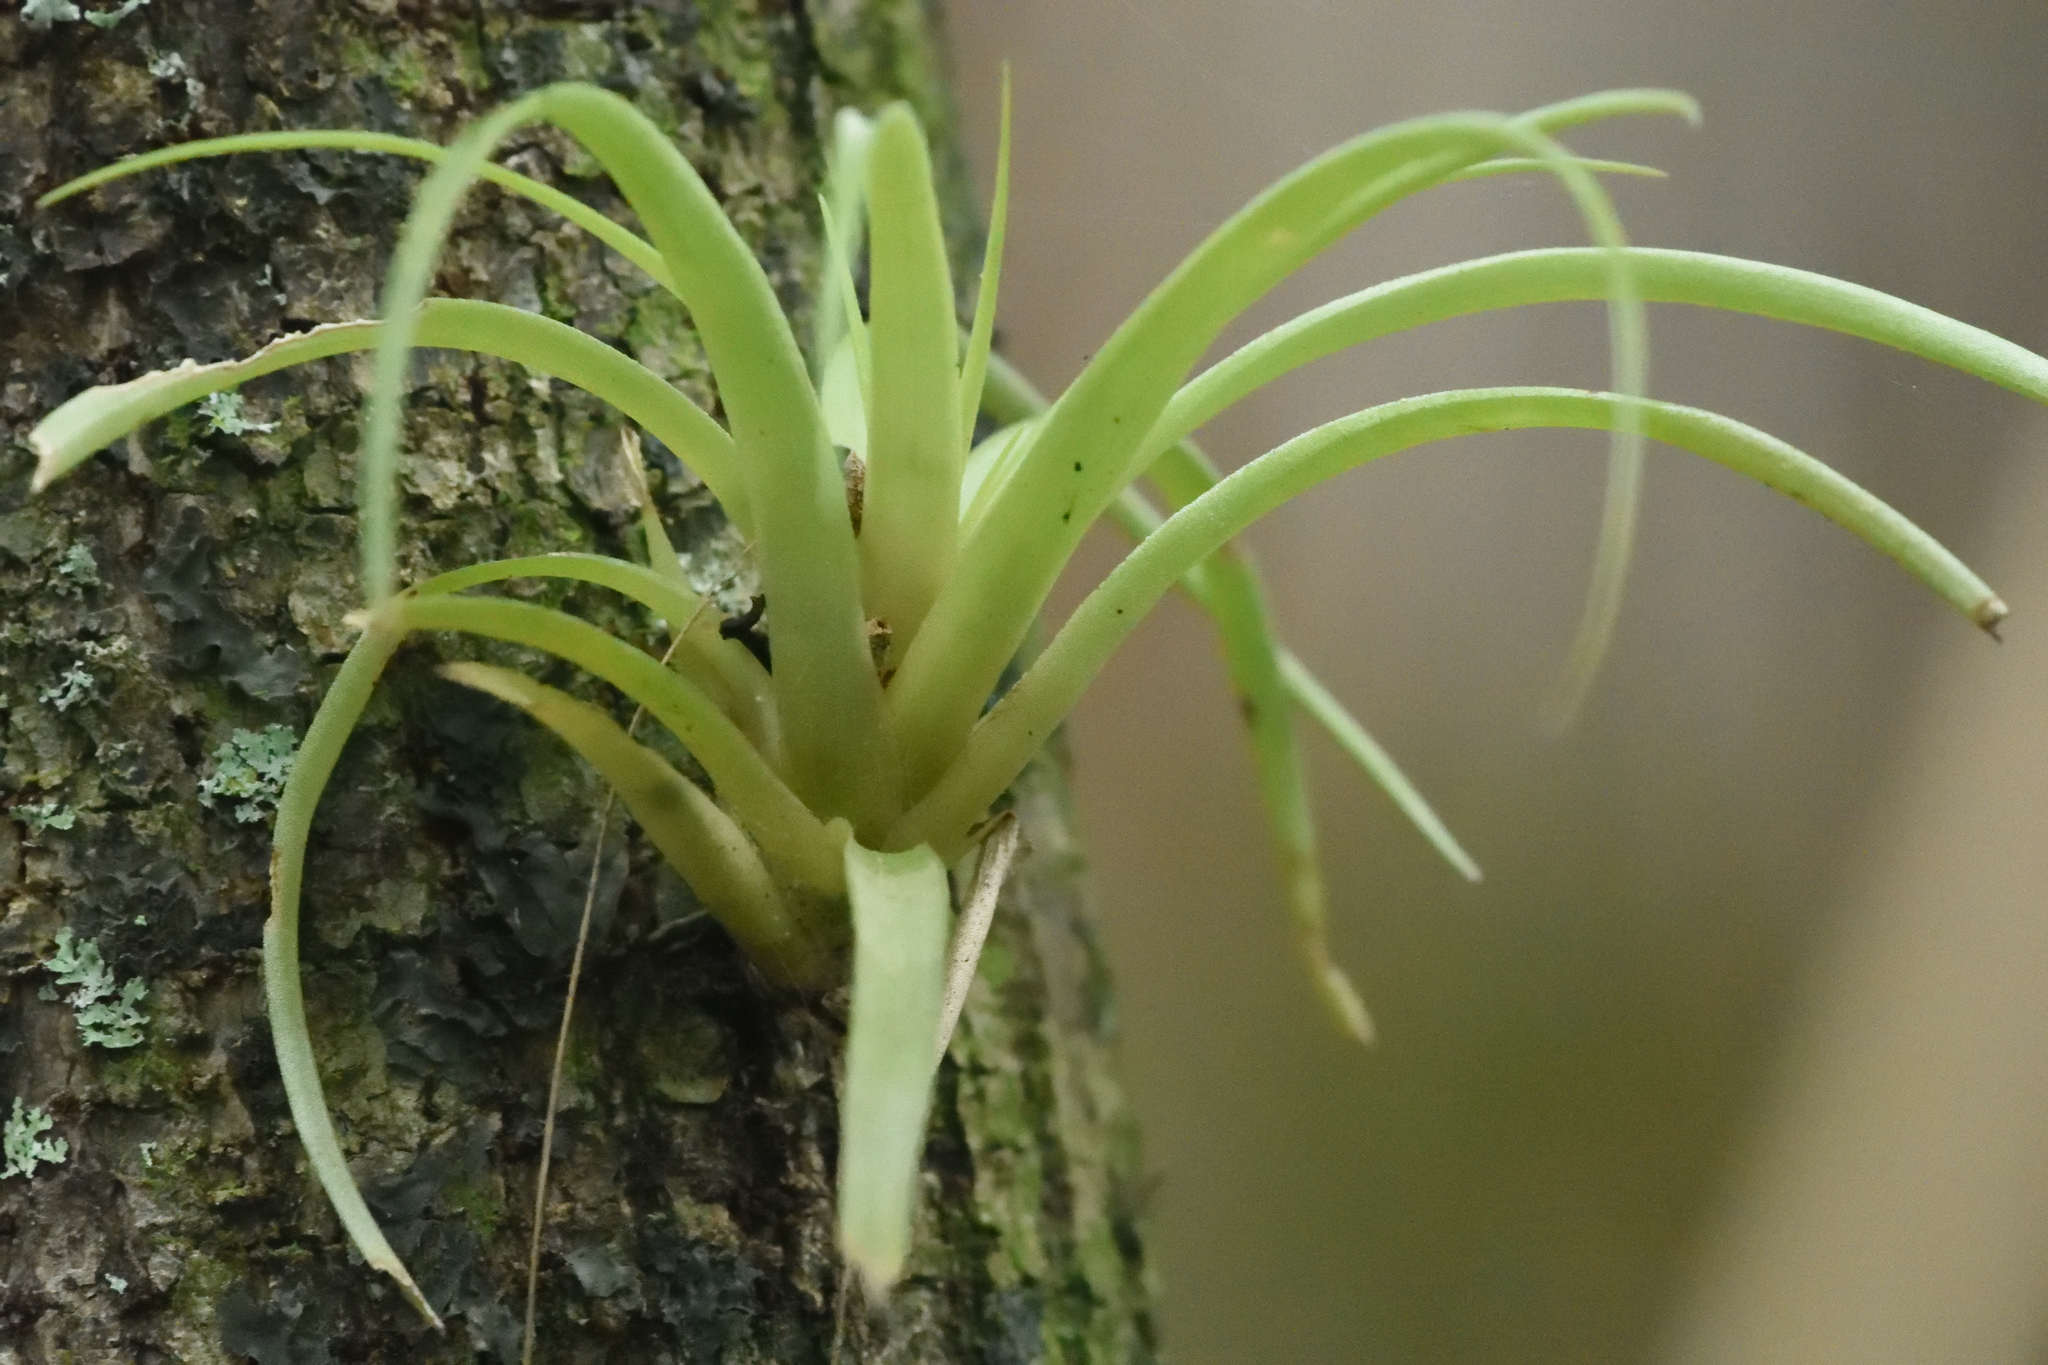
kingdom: Plantae
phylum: Tracheophyta
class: Liliopsida
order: Poales
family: Bromeliaceae
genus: Tillandsia
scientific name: Tillandsia utriculata
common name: Wild pine
